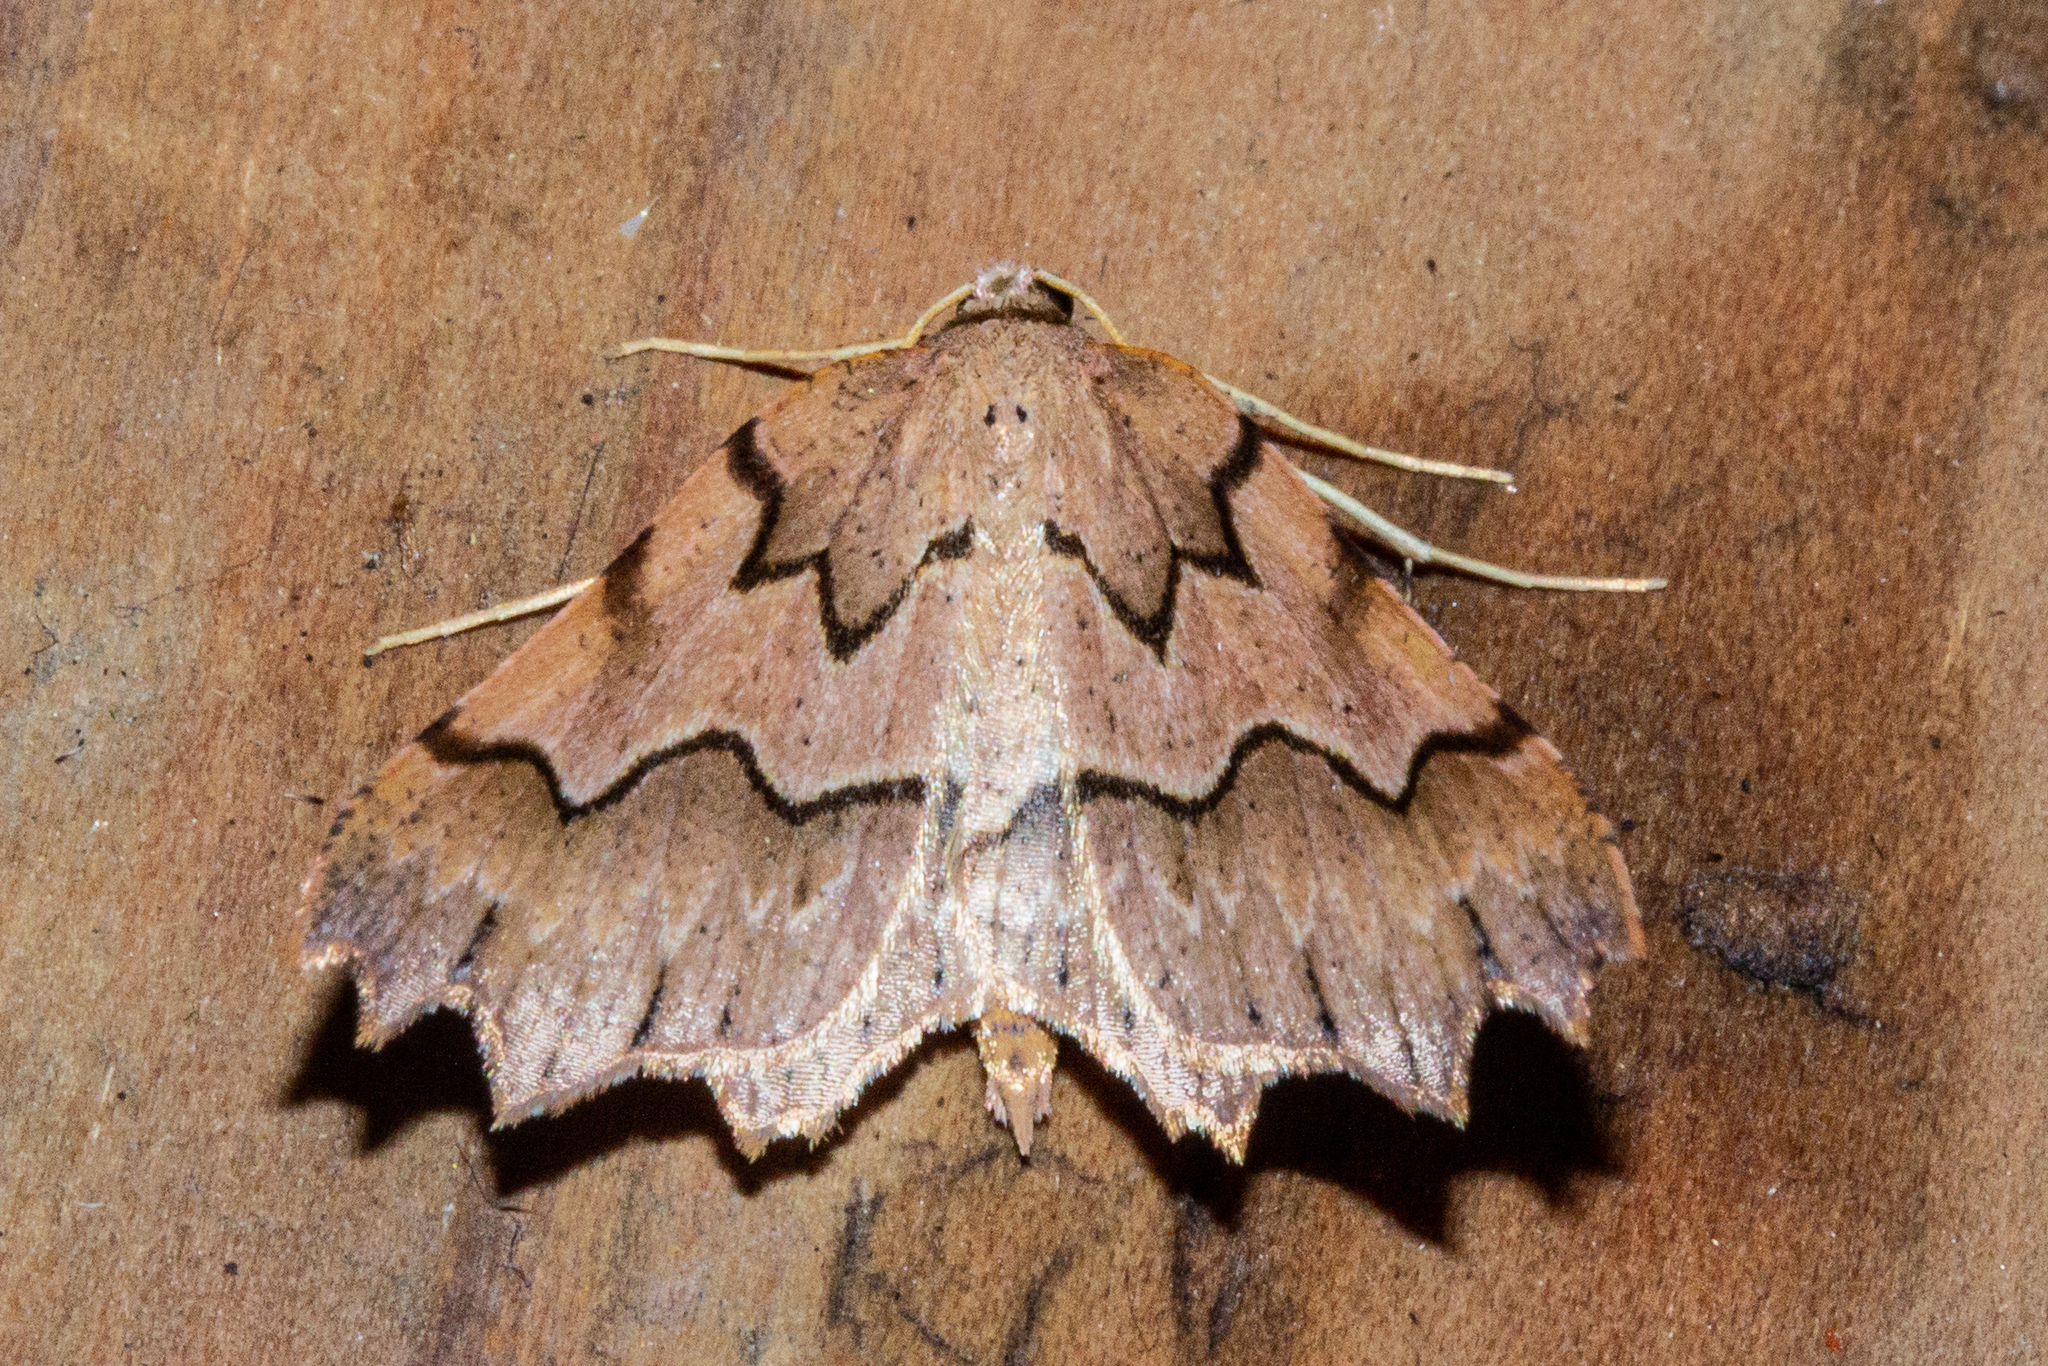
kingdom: Animalia
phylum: Arthropoda
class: Insecta
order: Lepidoptera
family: Geometridae
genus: Ischalis
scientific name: Ischalis fortinata
